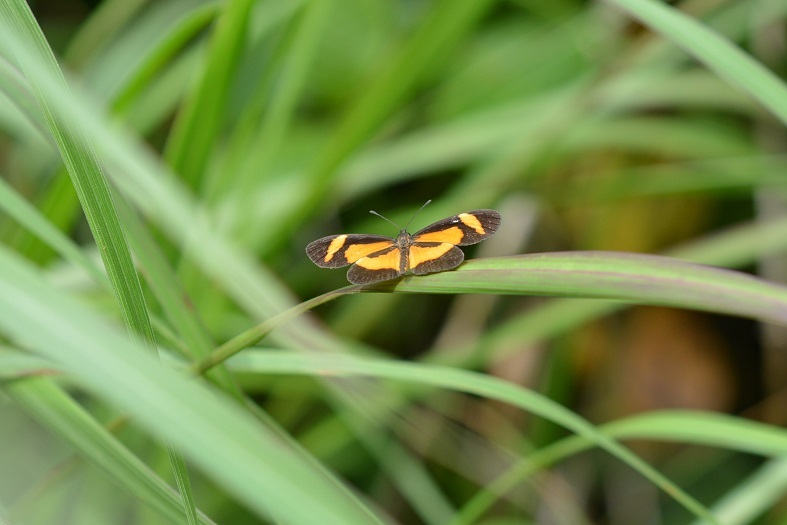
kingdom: Animalia
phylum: Arthropoda
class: Insecta
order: Lepidoptera
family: Nymphalidae
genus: Microtia
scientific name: Microtia elva
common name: Elf
